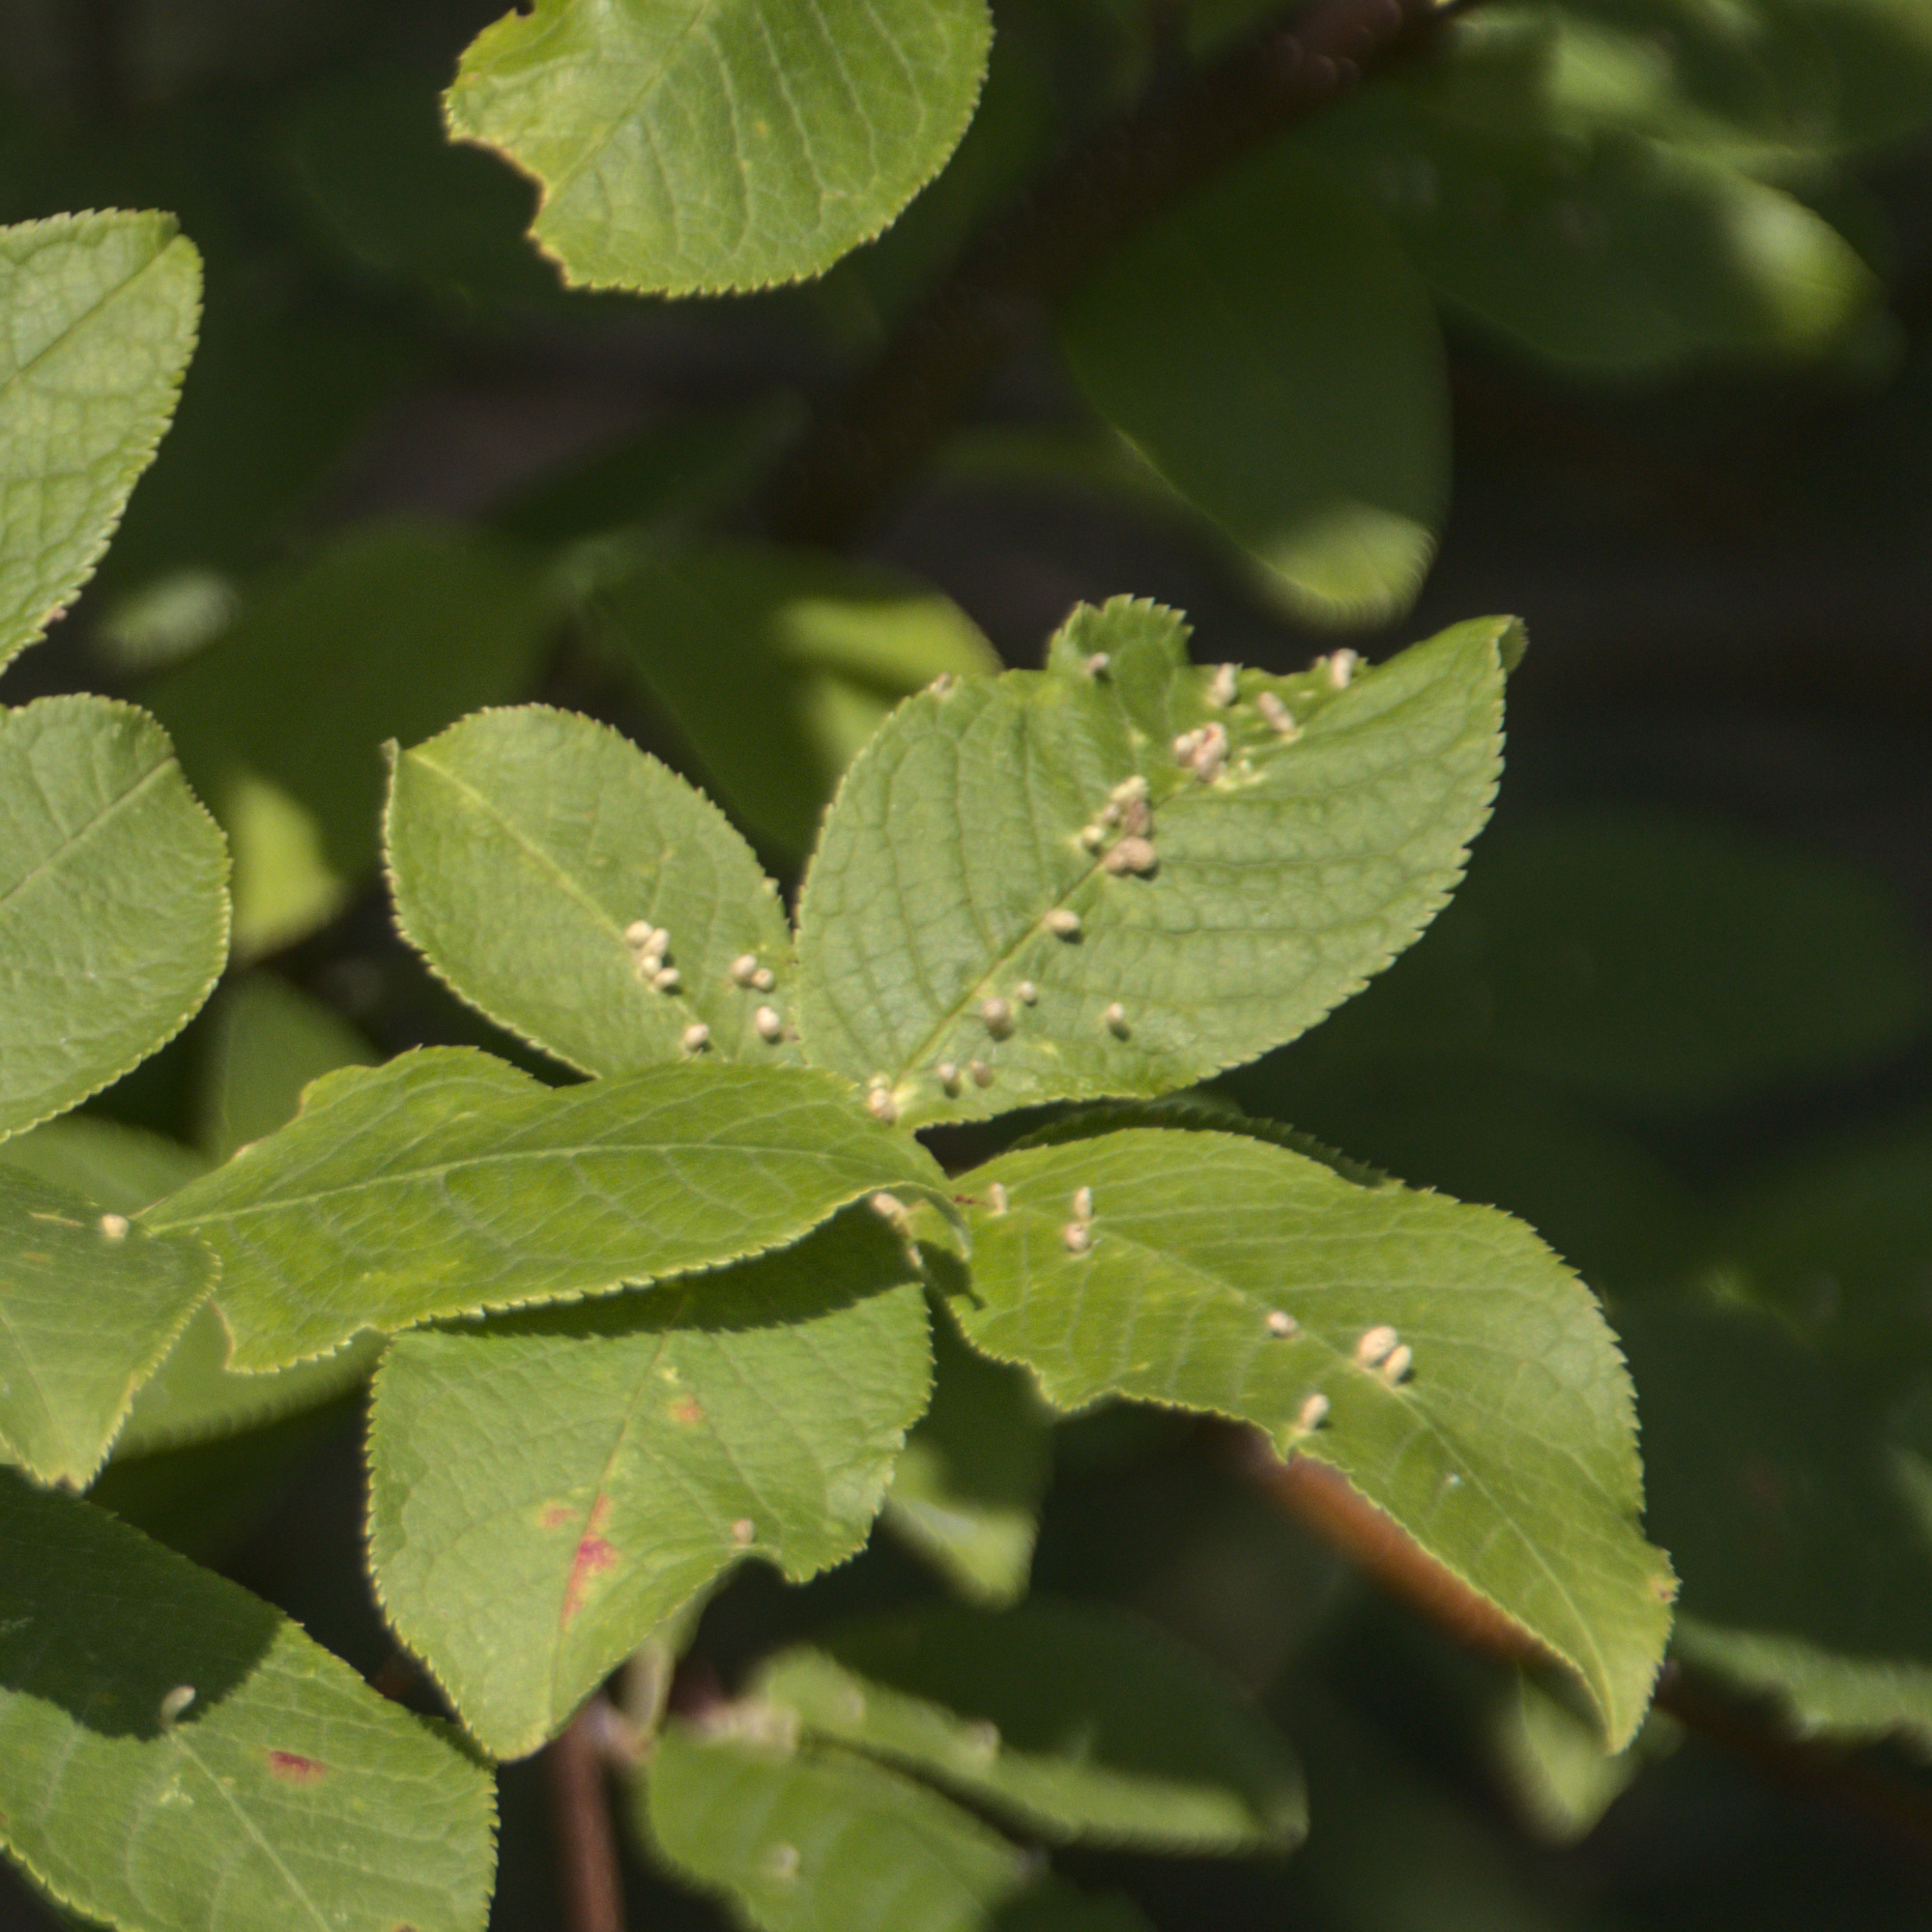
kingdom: Animalia
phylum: Arthropoda
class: Arachnida
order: Trombidiformes
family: Eriophyidae
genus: Phyllocoptes
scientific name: Phyllocoptes eupadi
